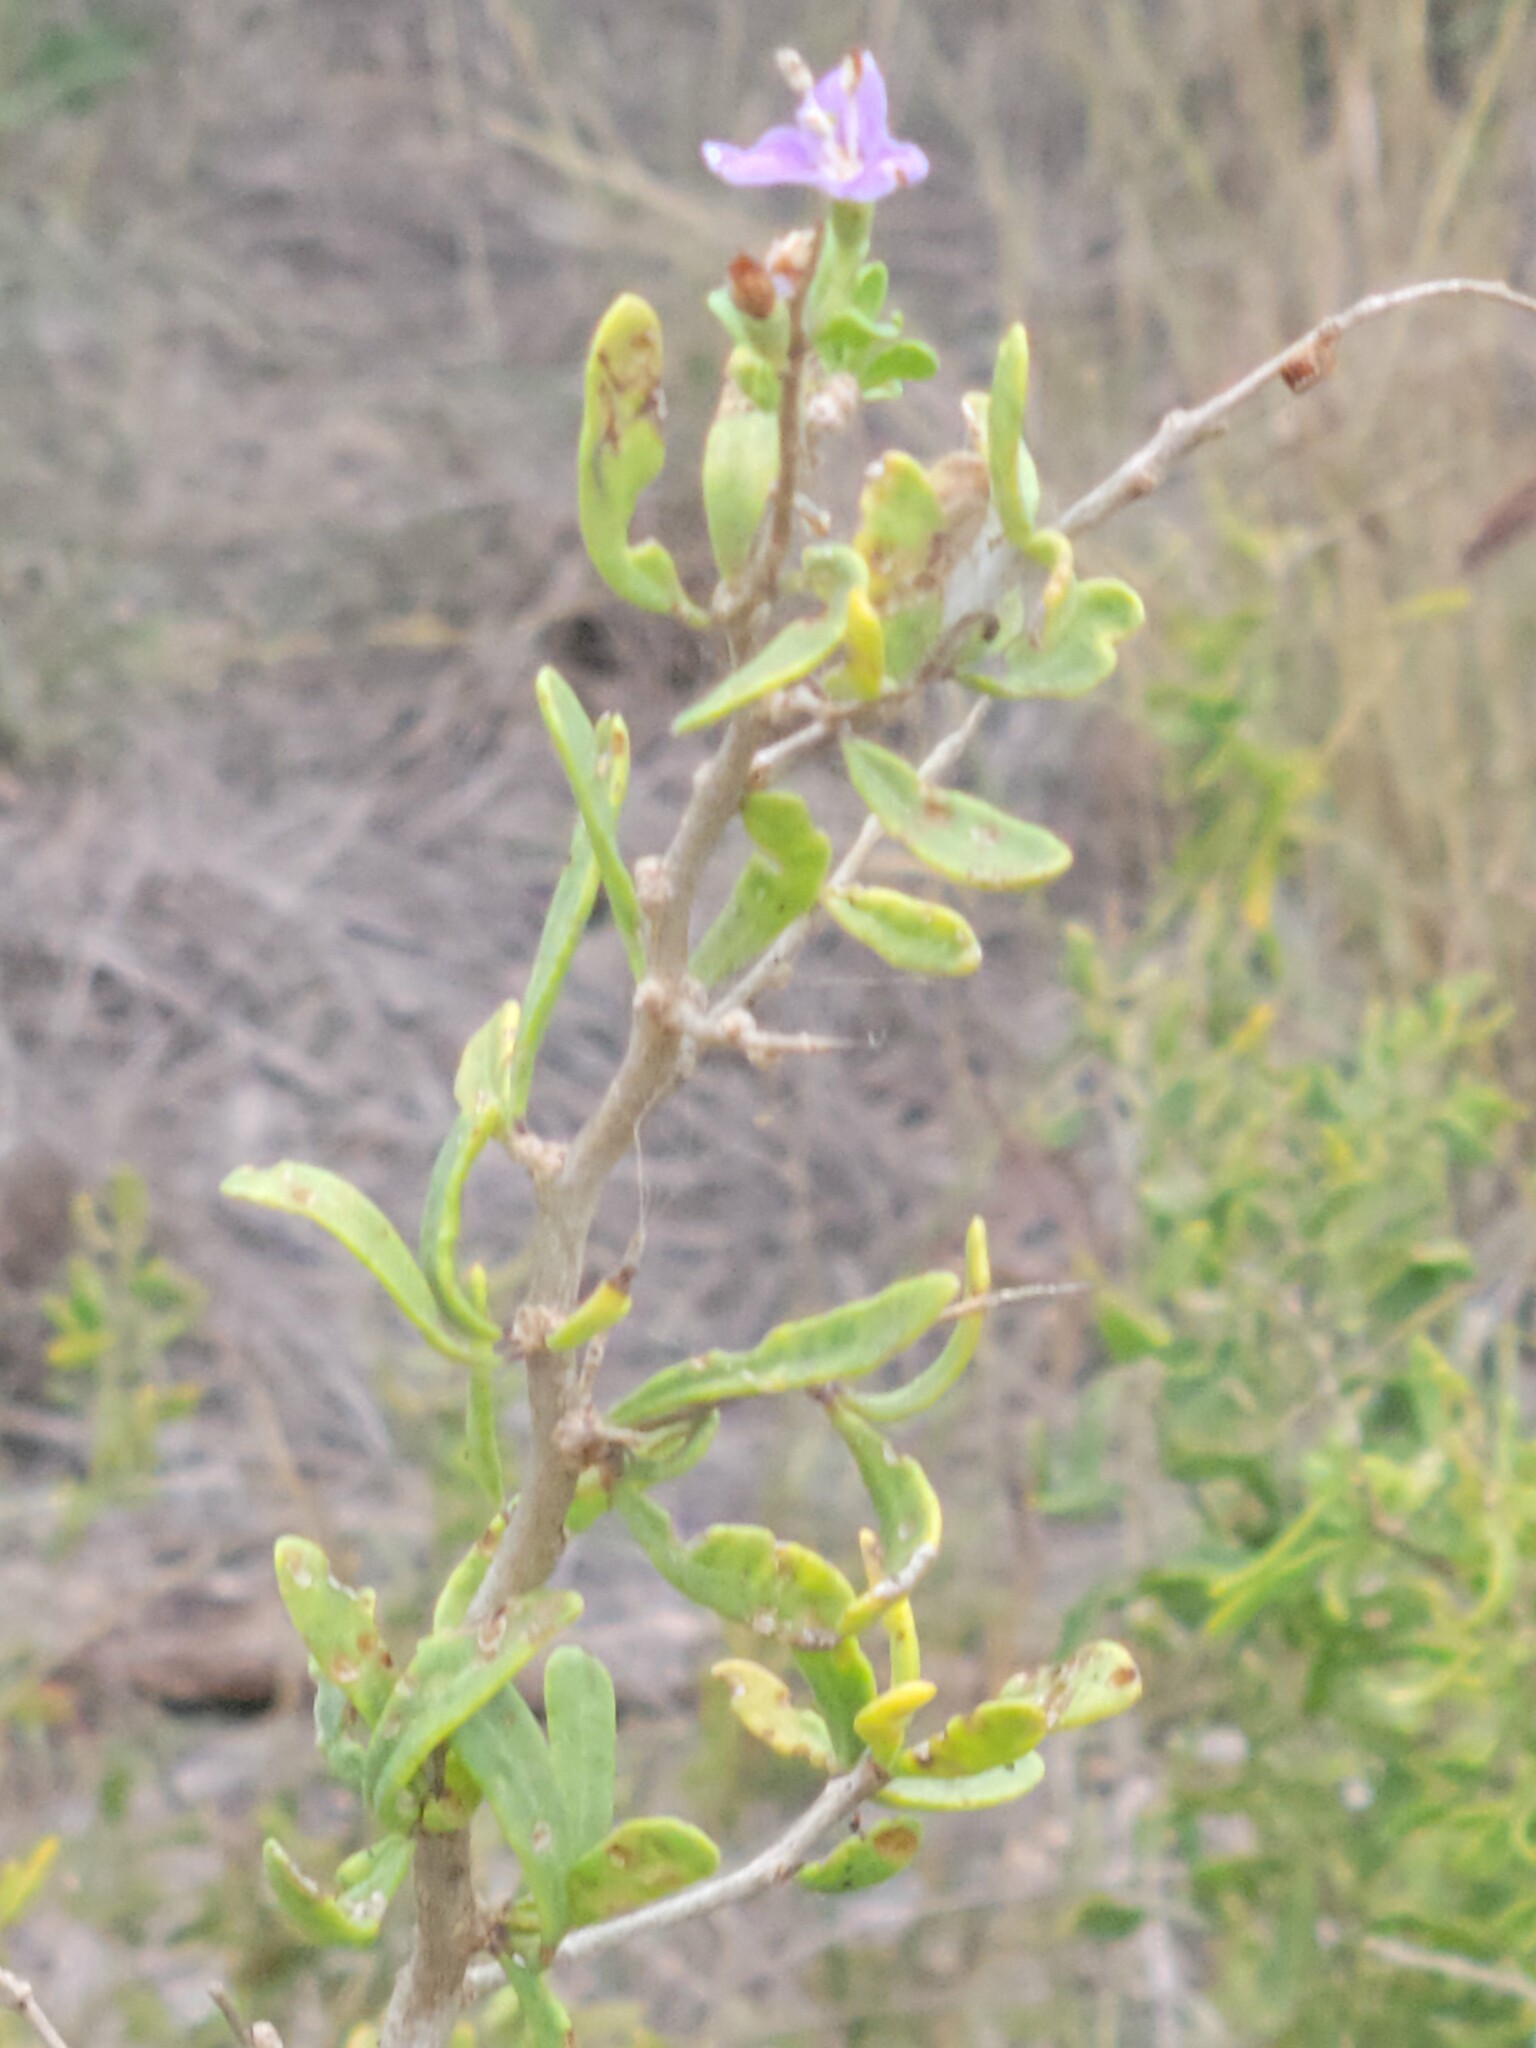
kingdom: Plantae
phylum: Tracheophyta
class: Magnoliopsida
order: Solanales
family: Solanaceae
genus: Lycium
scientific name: Lycium carolinianum
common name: Christmasberry
